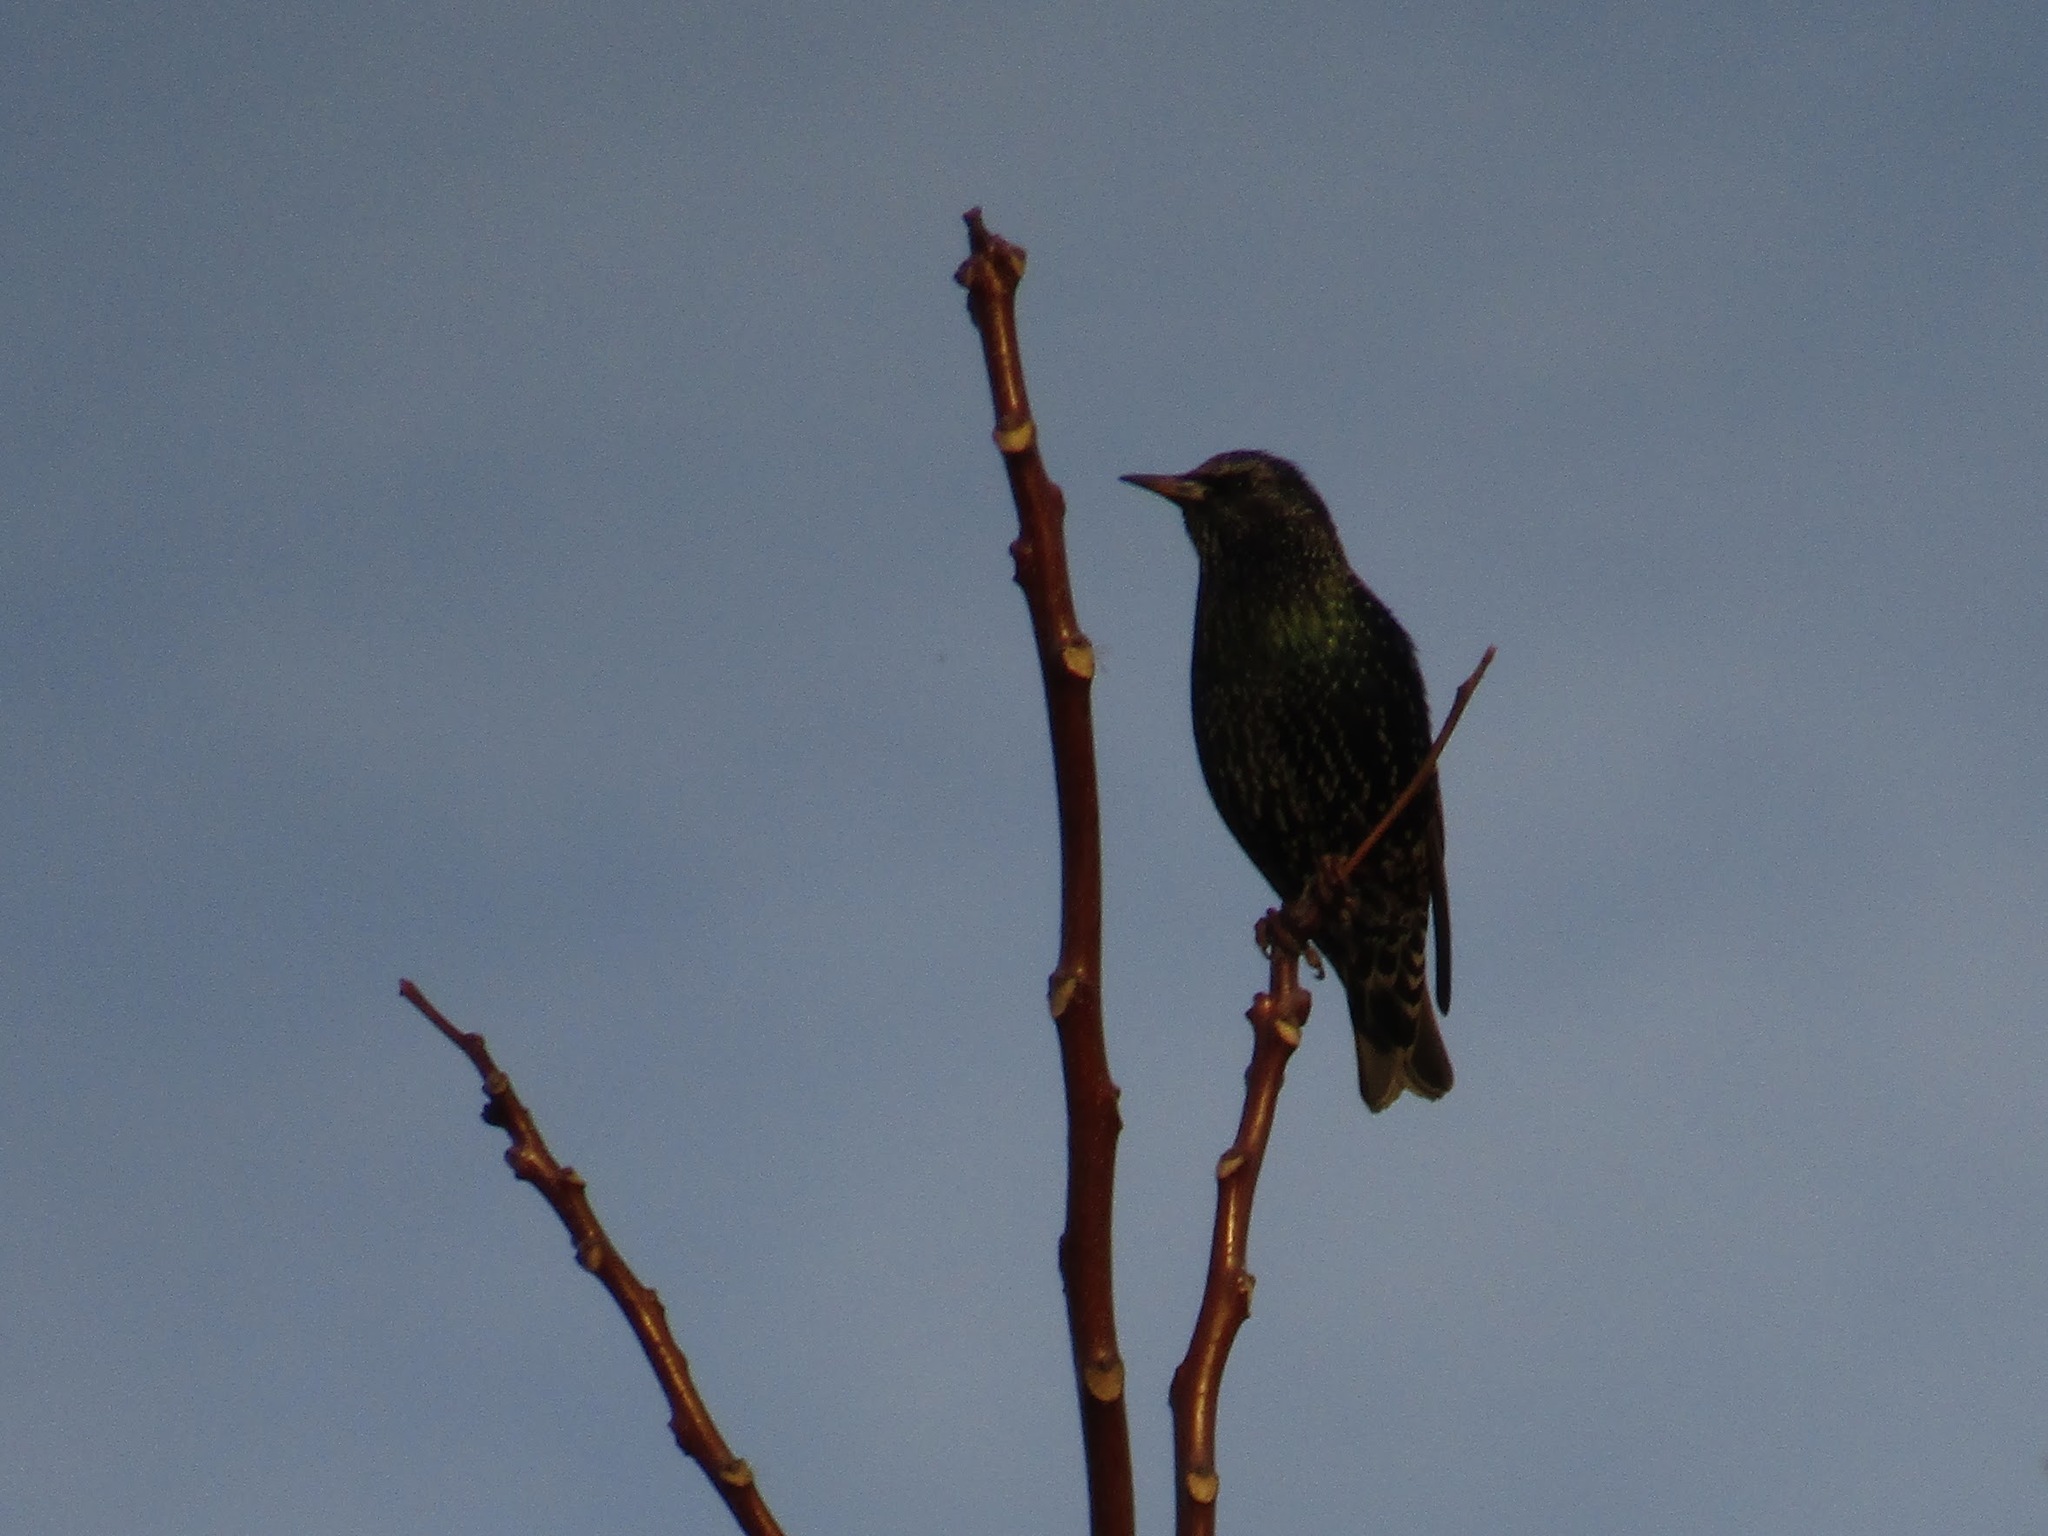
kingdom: Animalia
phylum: Chordata
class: Aves
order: Passeriformes
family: Sturnidae
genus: Sturnus
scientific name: Sturnus vulgaris
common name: Common starling
